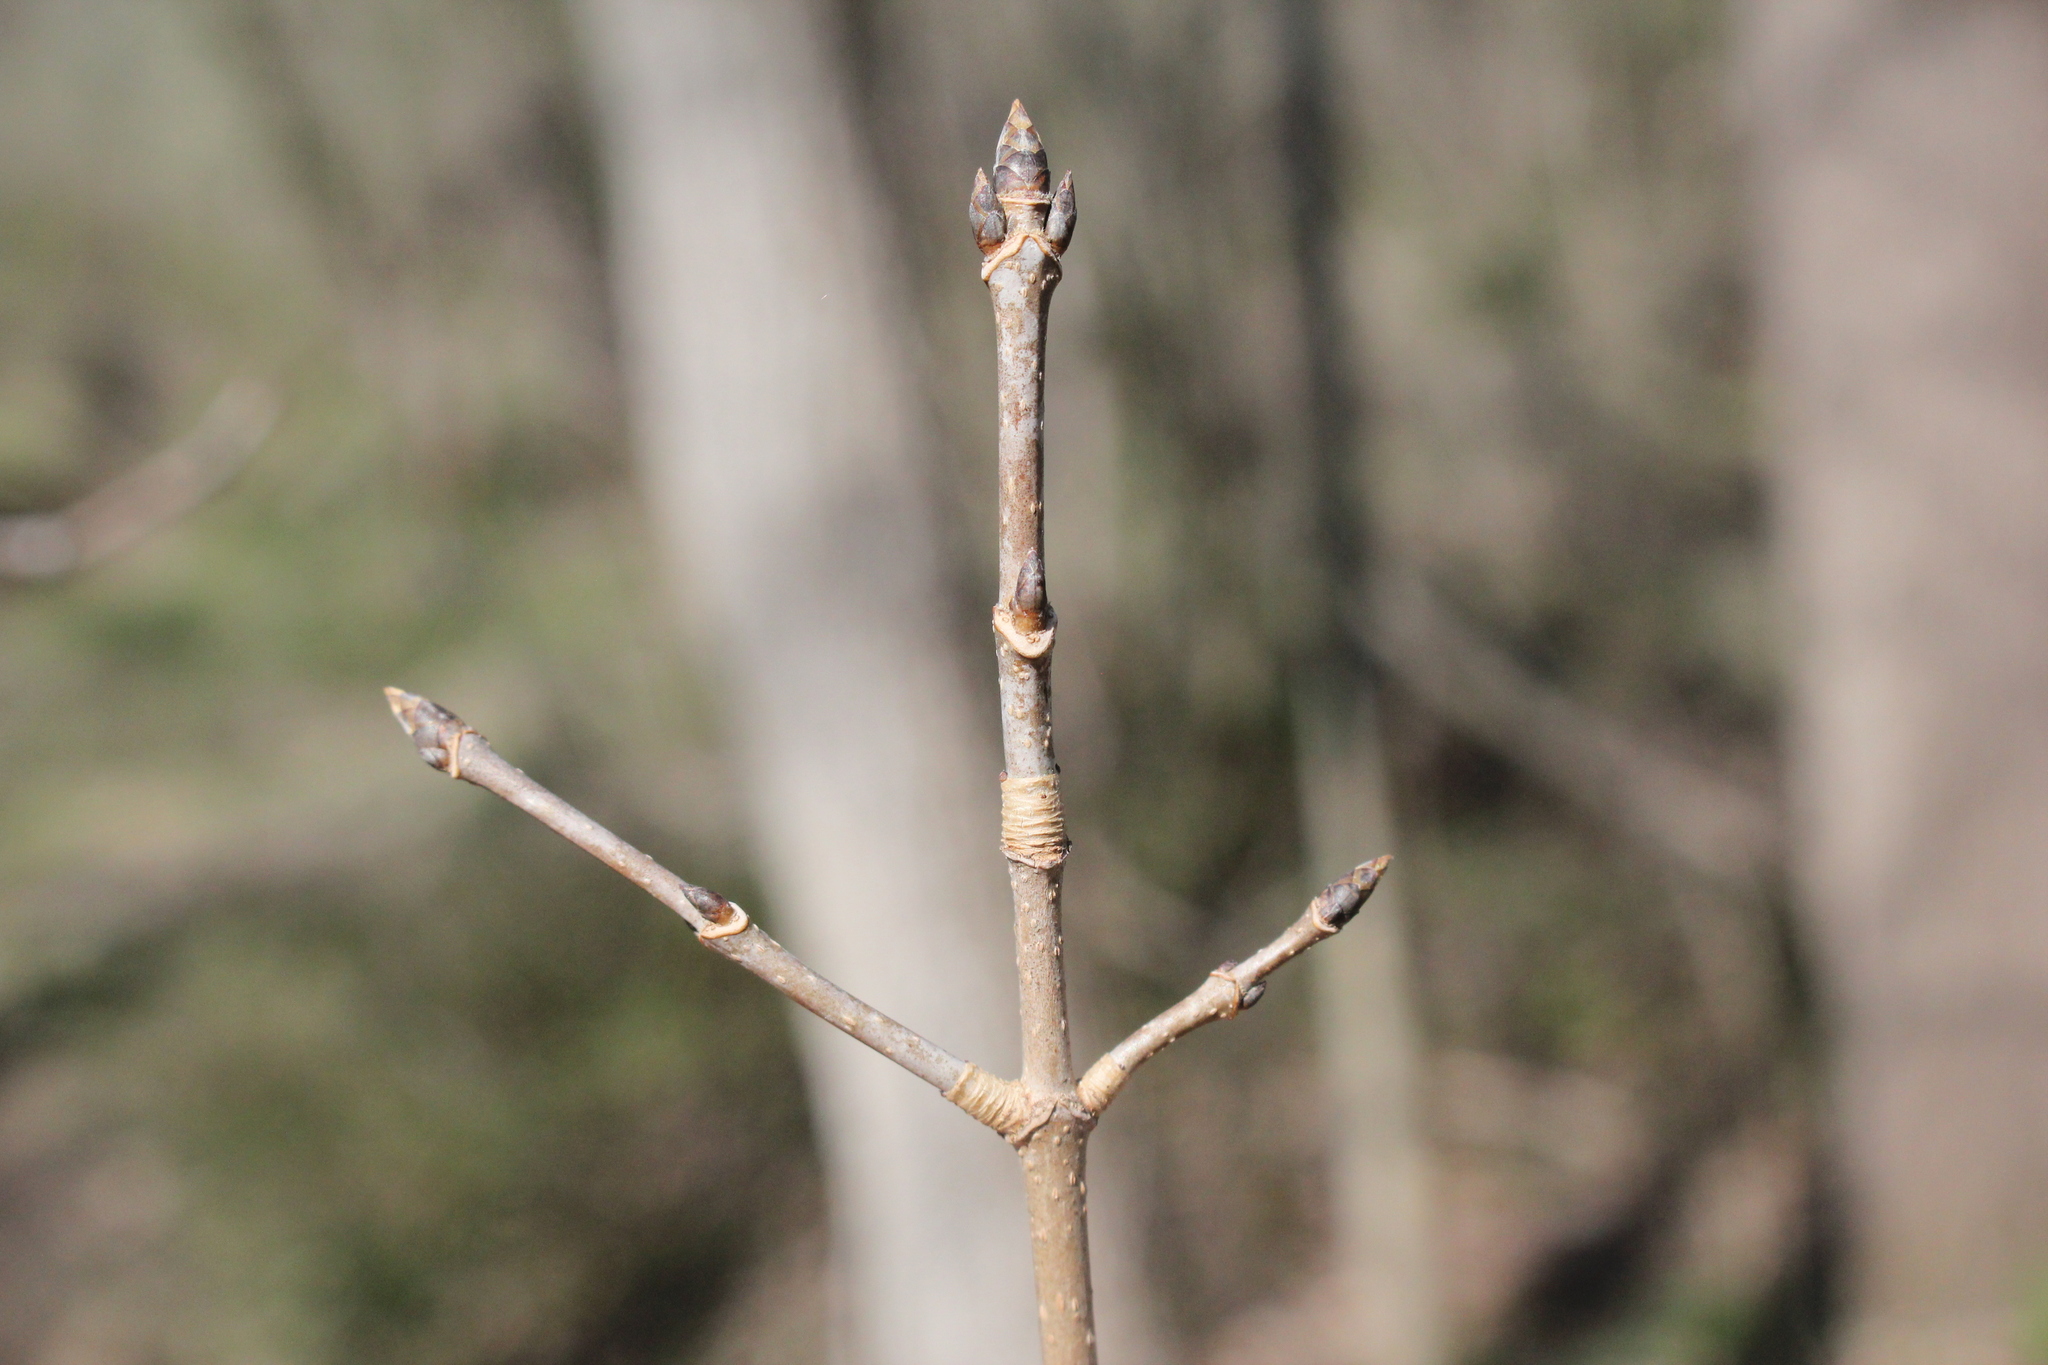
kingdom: Plantae
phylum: Tracheophyta
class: Magnoliopsida
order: Sapindales
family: Sapindaceae
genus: Acer
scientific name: Acer nigrum
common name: Black maple
